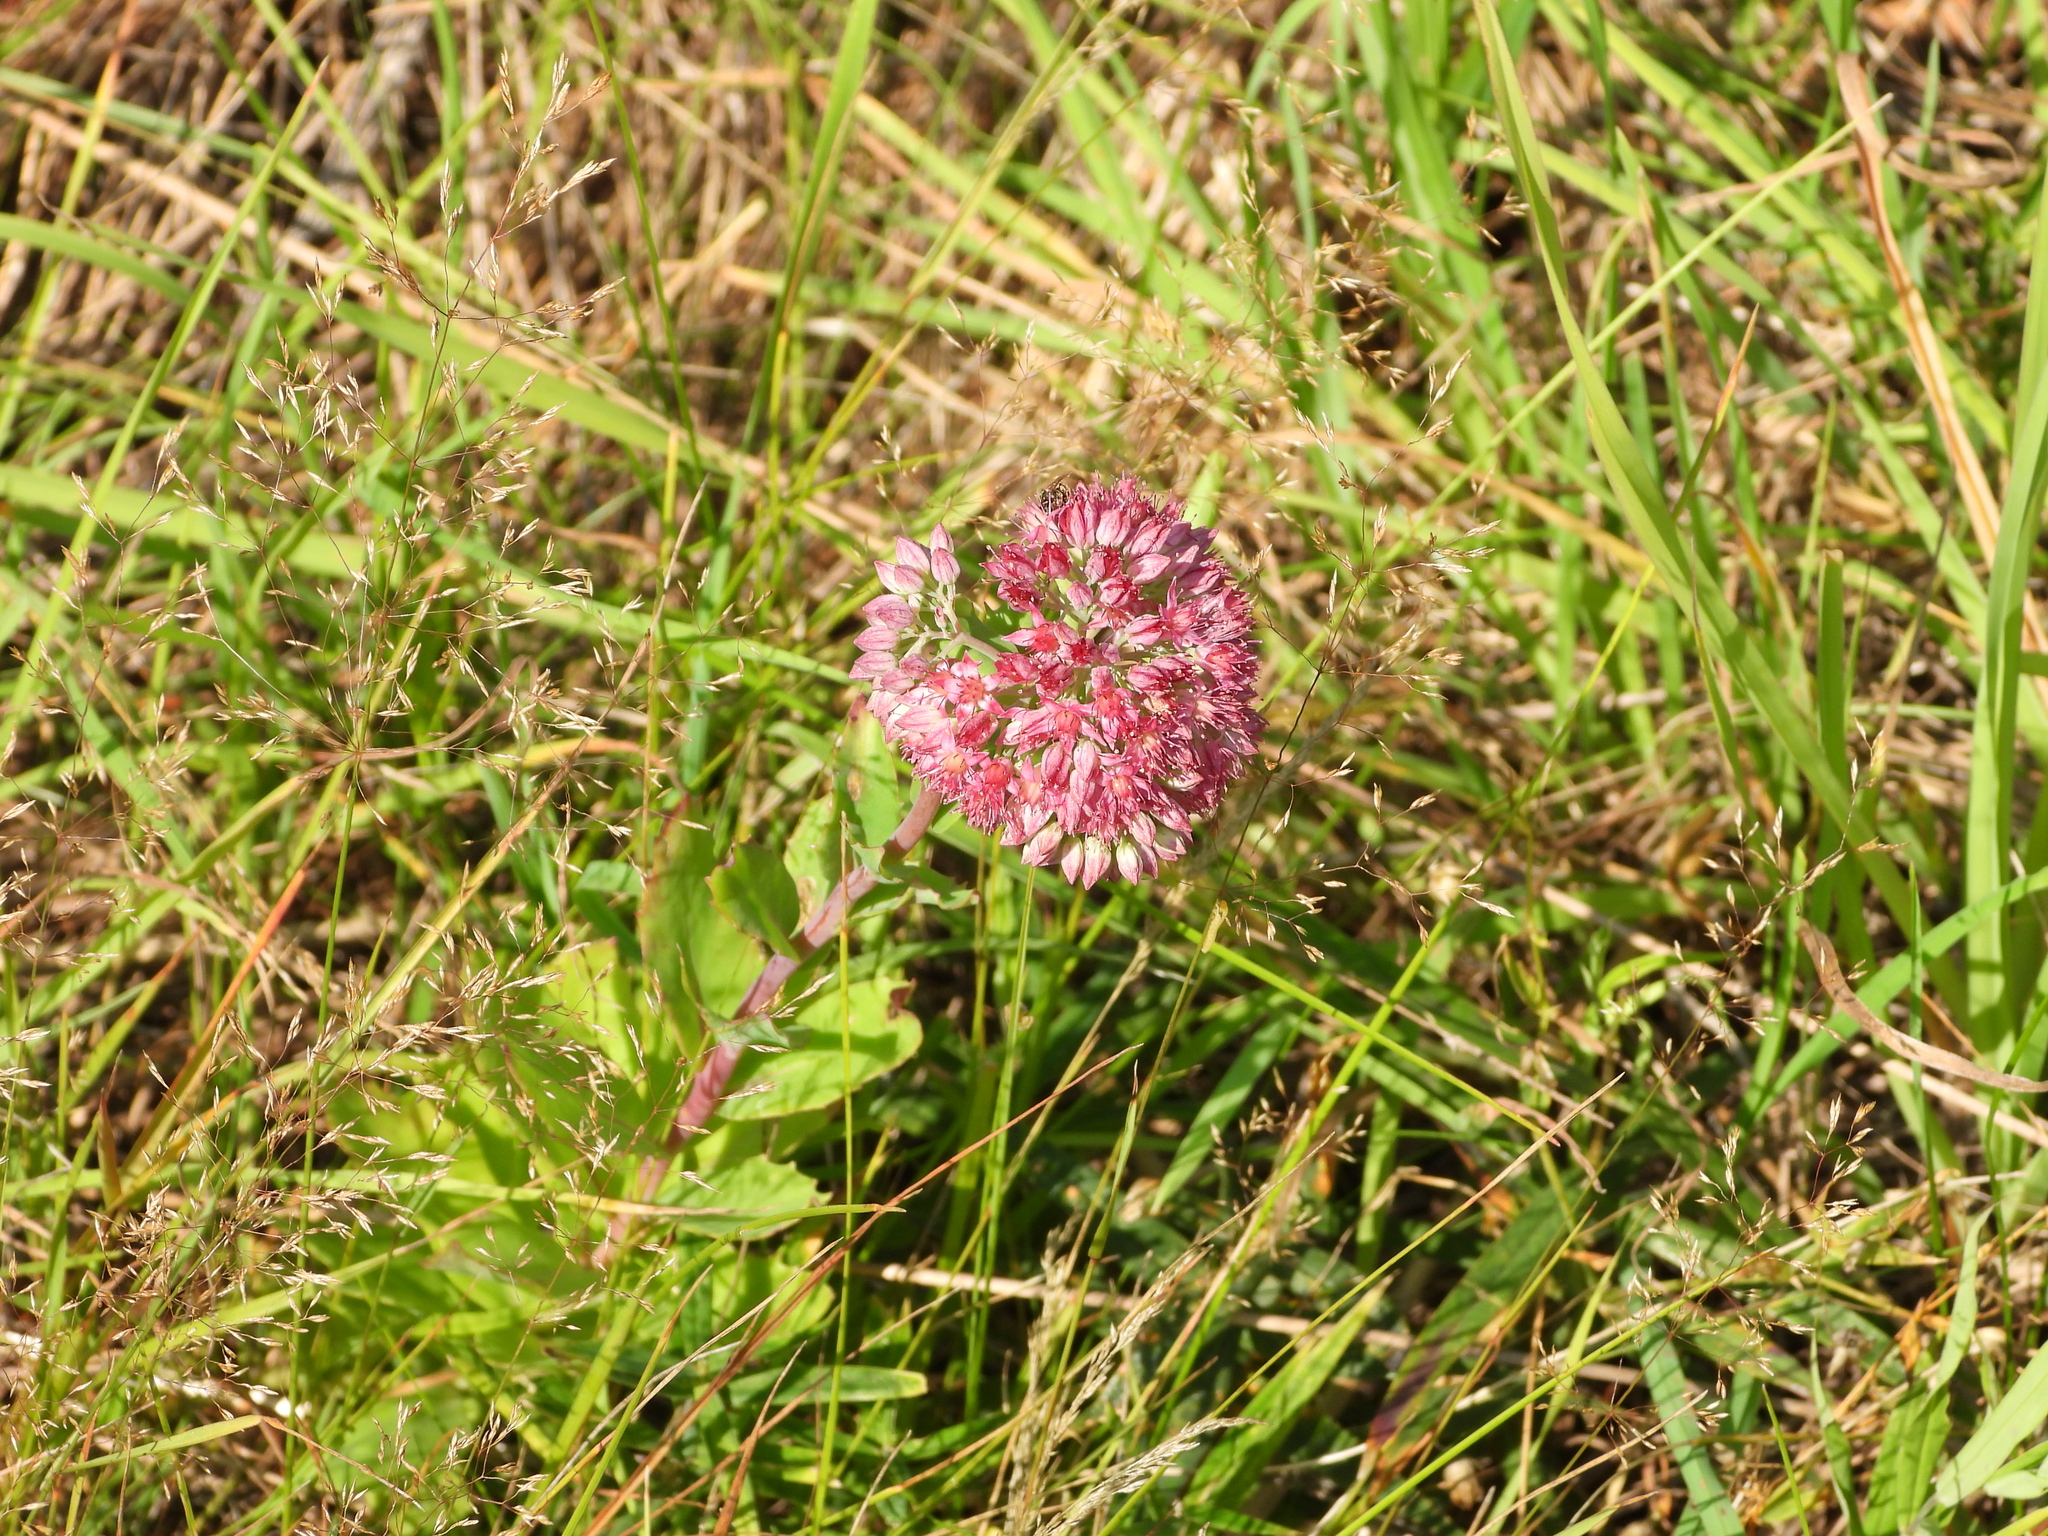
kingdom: Plantae
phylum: Tracheophyta
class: Magnoliopsida
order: Saxifragales
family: Crassulaceae
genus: Hylotelephium
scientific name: Hylotelephium telephium
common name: Live-forever
